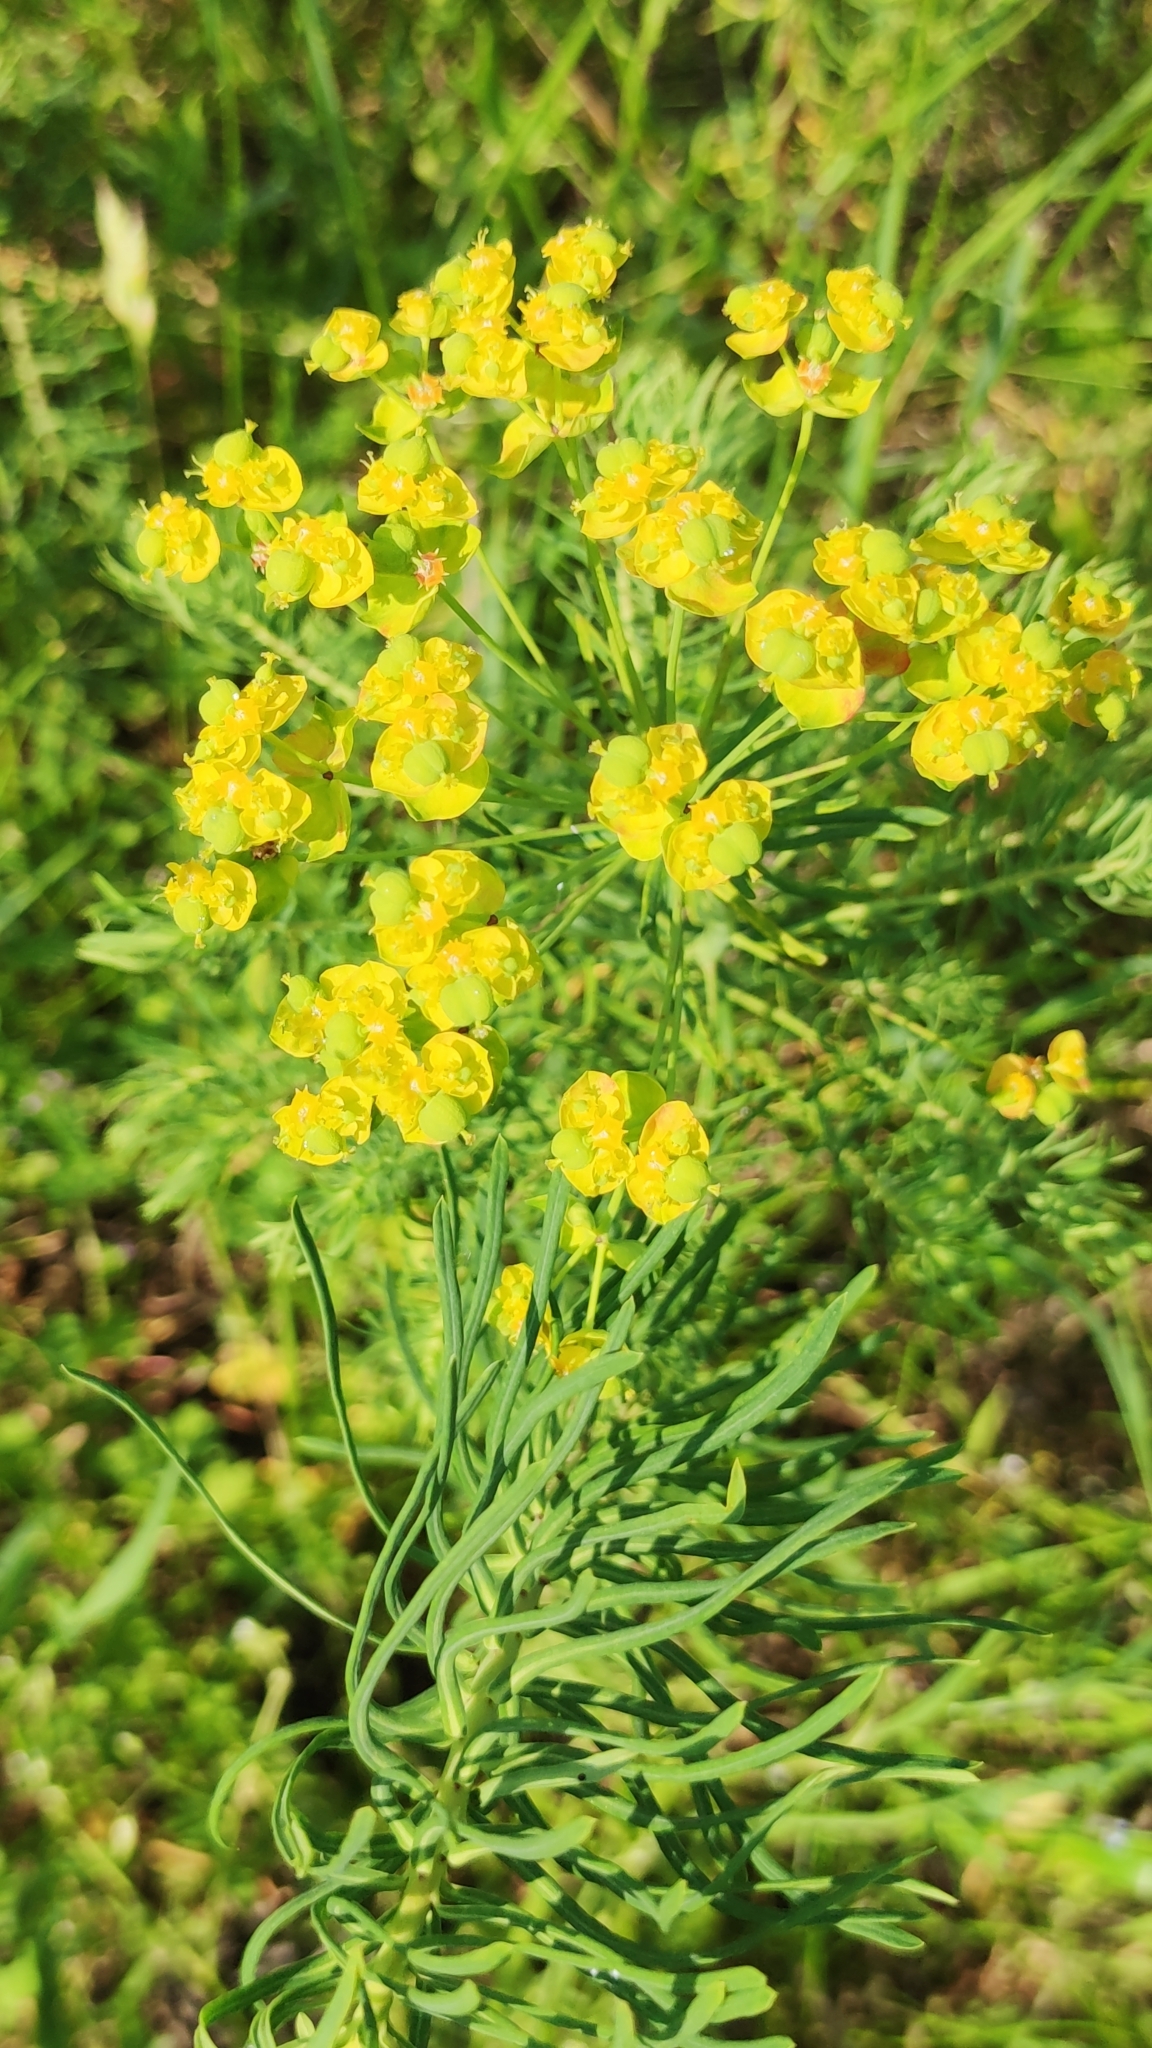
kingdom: Plantae
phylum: Tracheophyta
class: Magnoliopsida
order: Malpighiales
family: Euphorbiaceae
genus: Euphorbia
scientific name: Euphorbia cyparissias
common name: Cypress spurge
